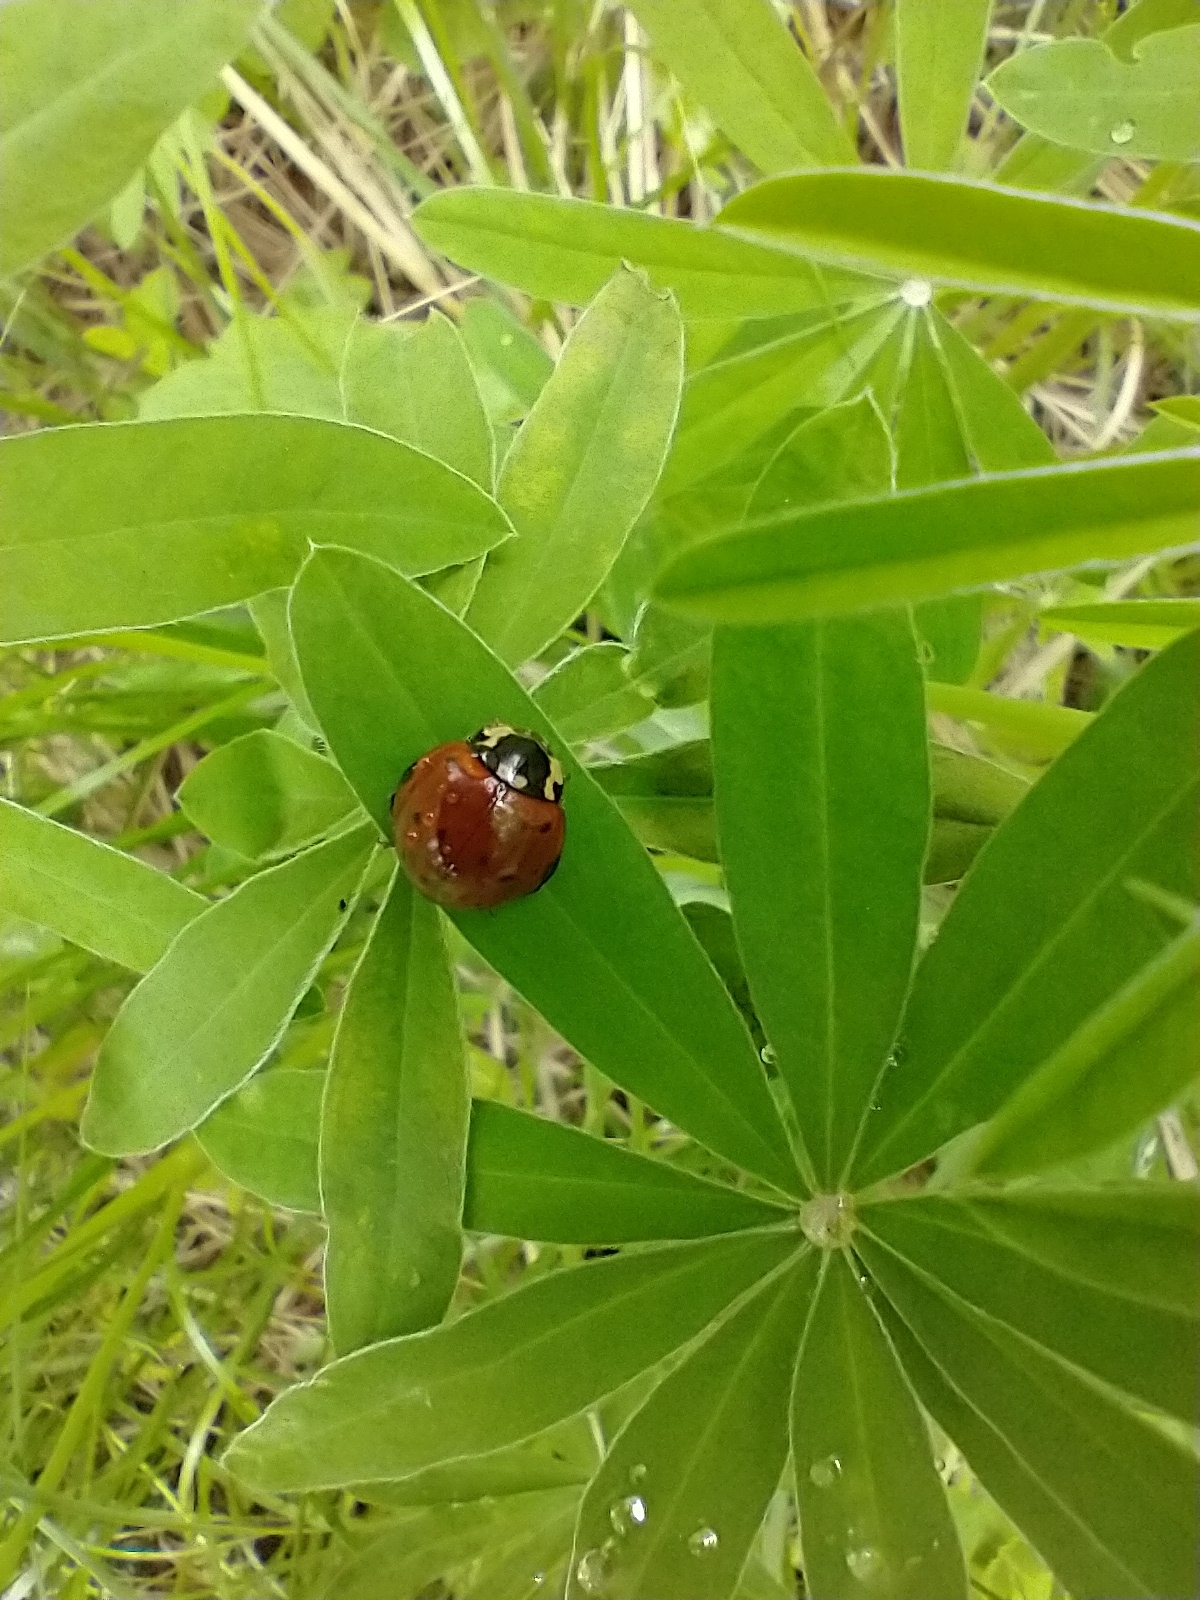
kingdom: Animalia
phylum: Arthropoda
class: Insecta
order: Coleoptera
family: Coccinellidae
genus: Anatis
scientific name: Anatis rathvoni
